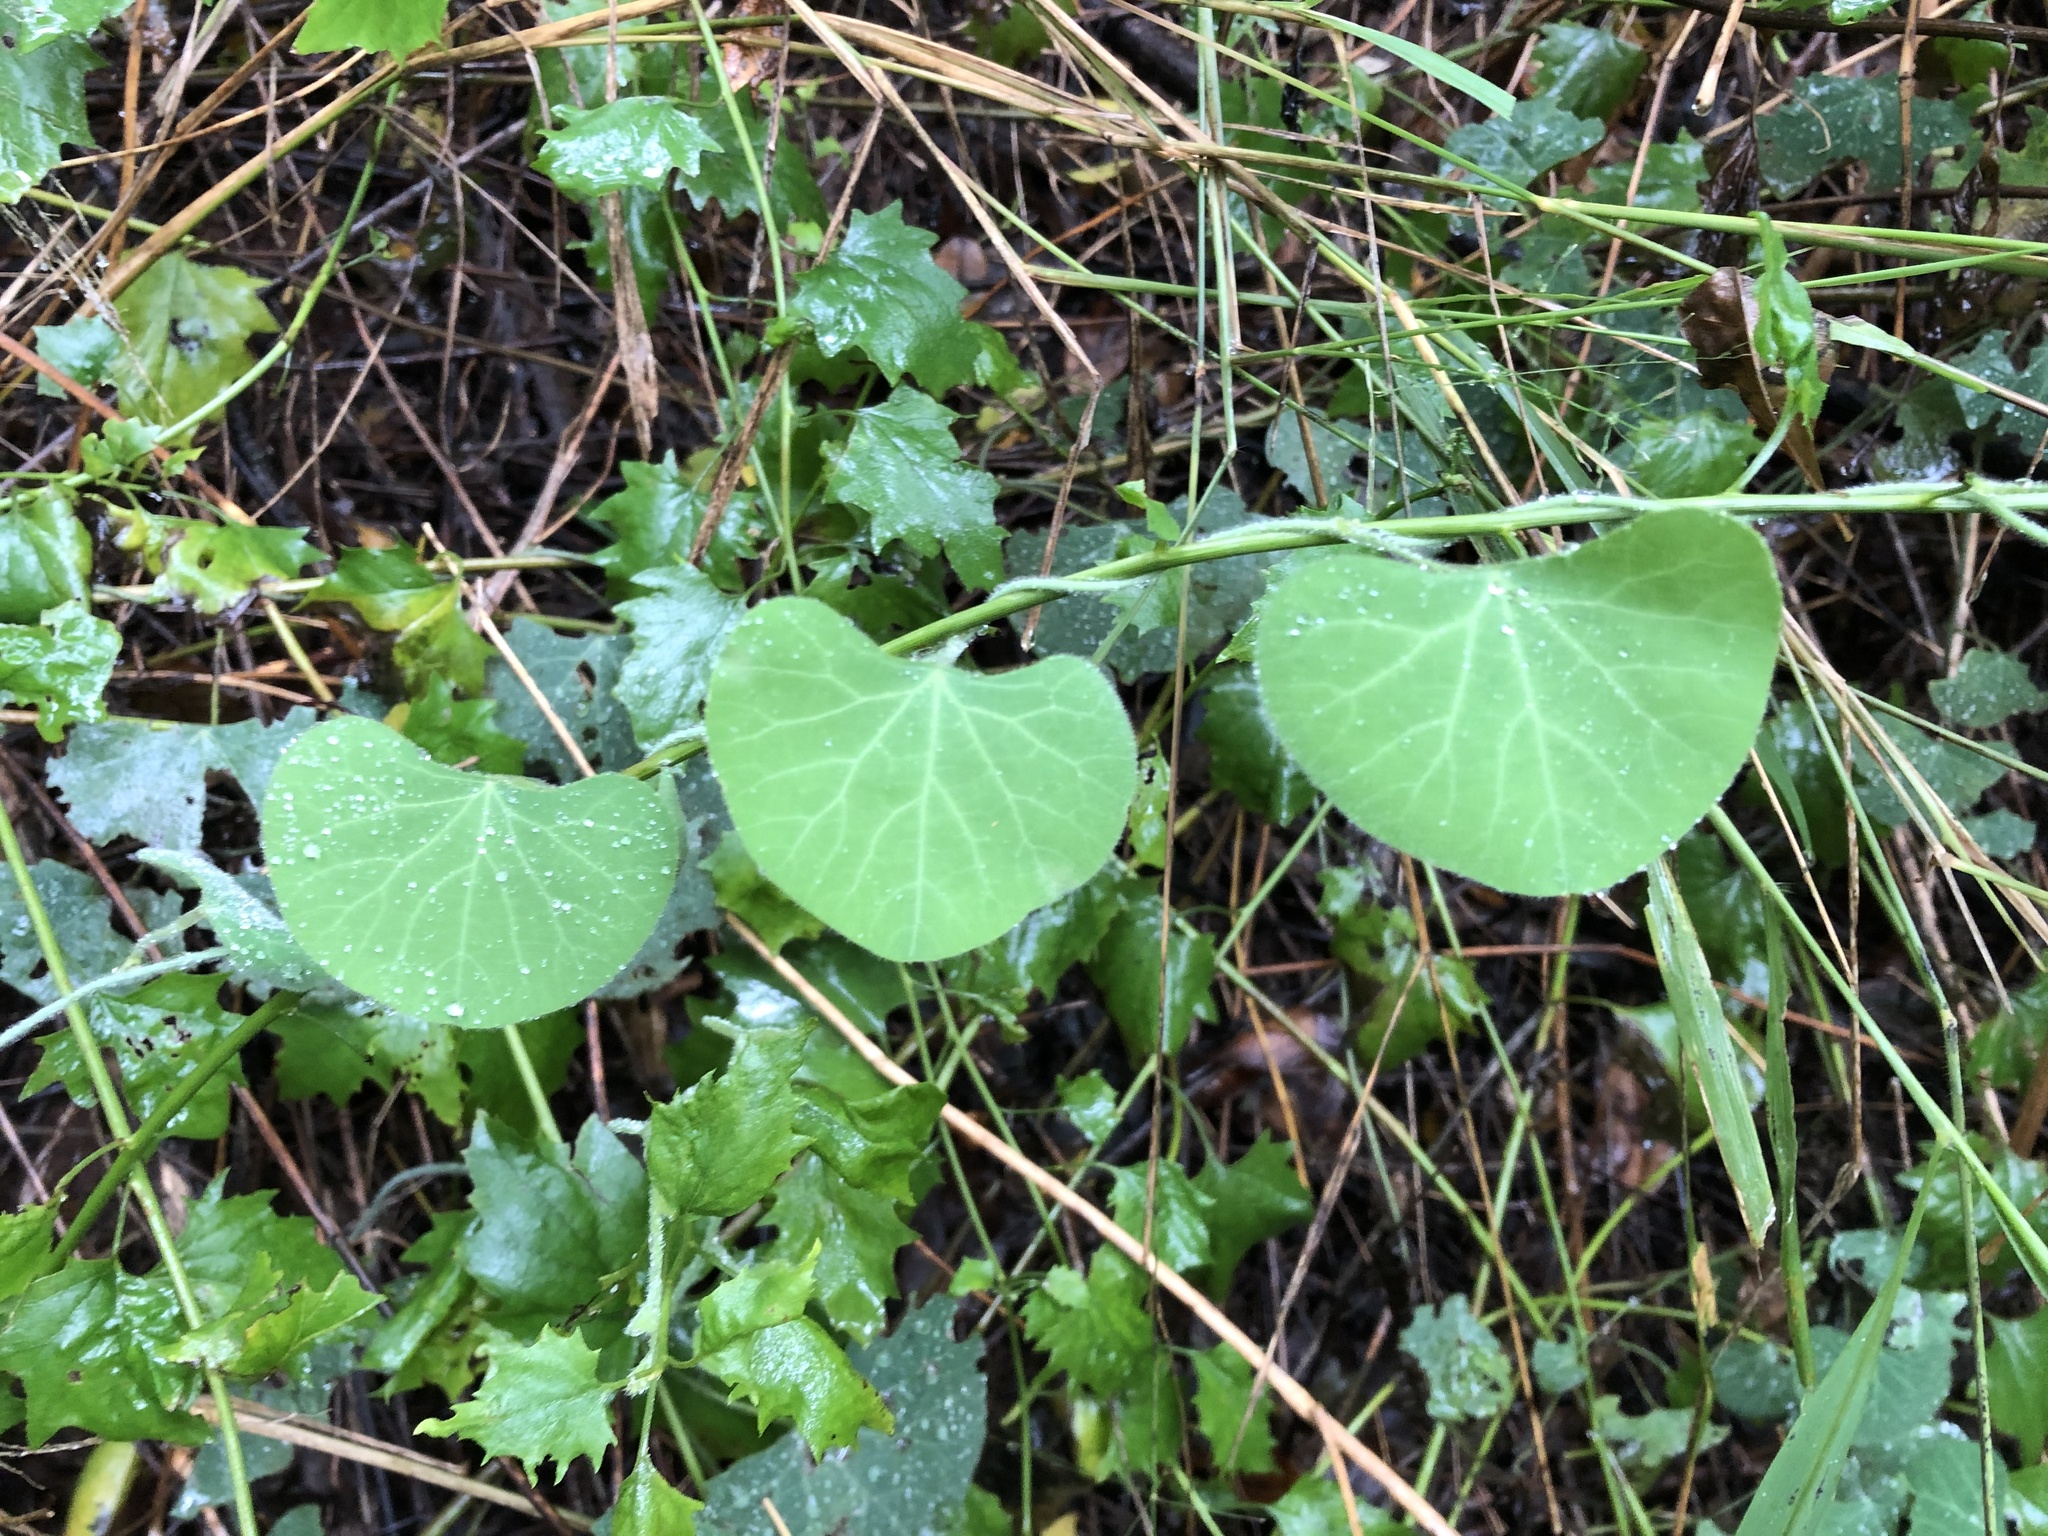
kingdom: Plantae
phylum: Tracheophyta
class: Magnoliopsida
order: Ranunculales
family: Menispermaceae
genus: Cissampelos
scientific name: Cissampelos torulosa
